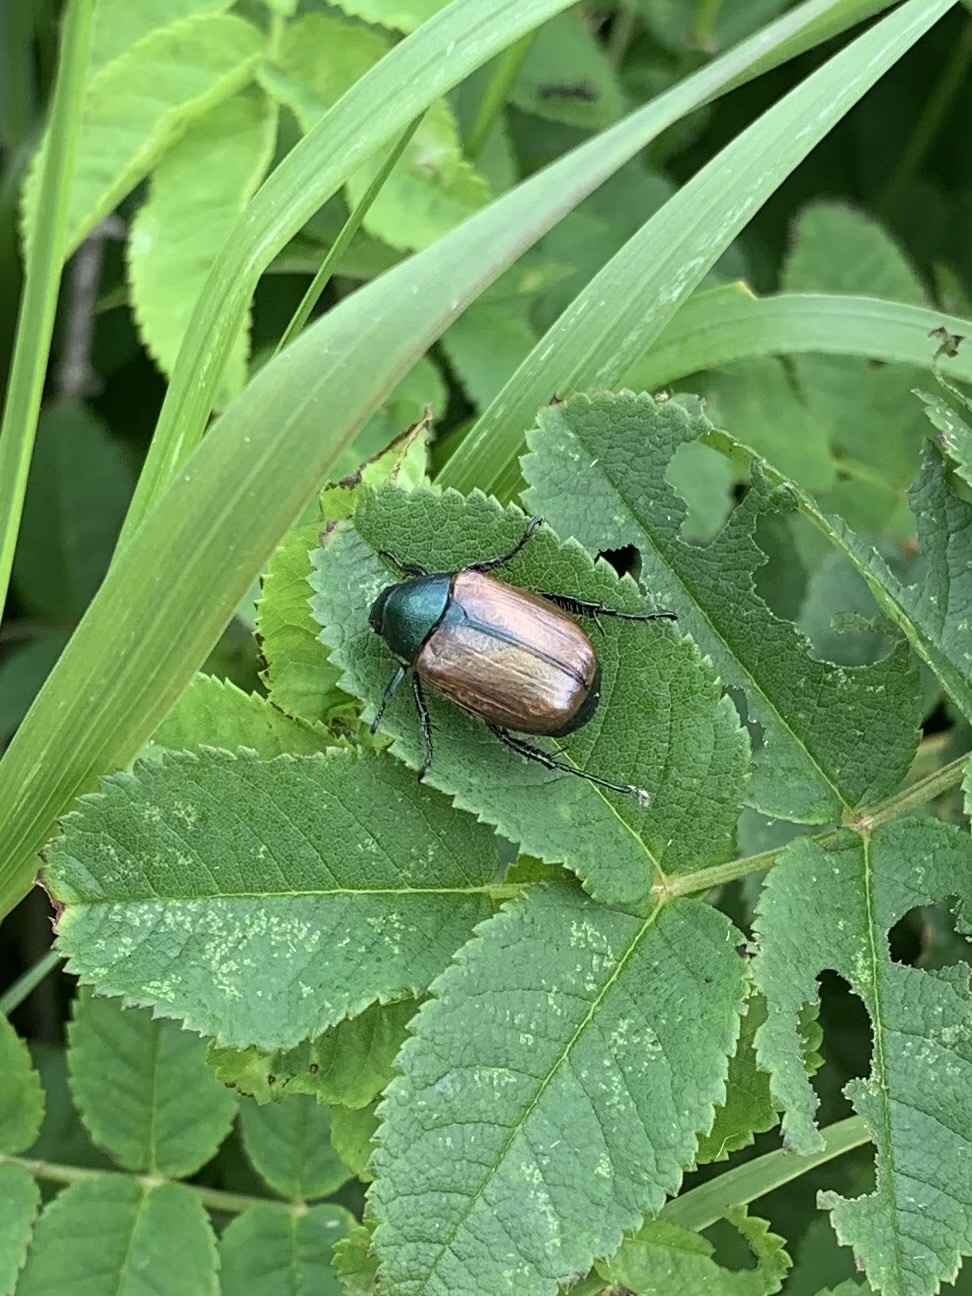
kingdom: Animalia
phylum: Arthropoda
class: Insecta
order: Coleoptera
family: Scarabaeidae
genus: Anomala
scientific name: Anomala dubia
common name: Dune chafer
